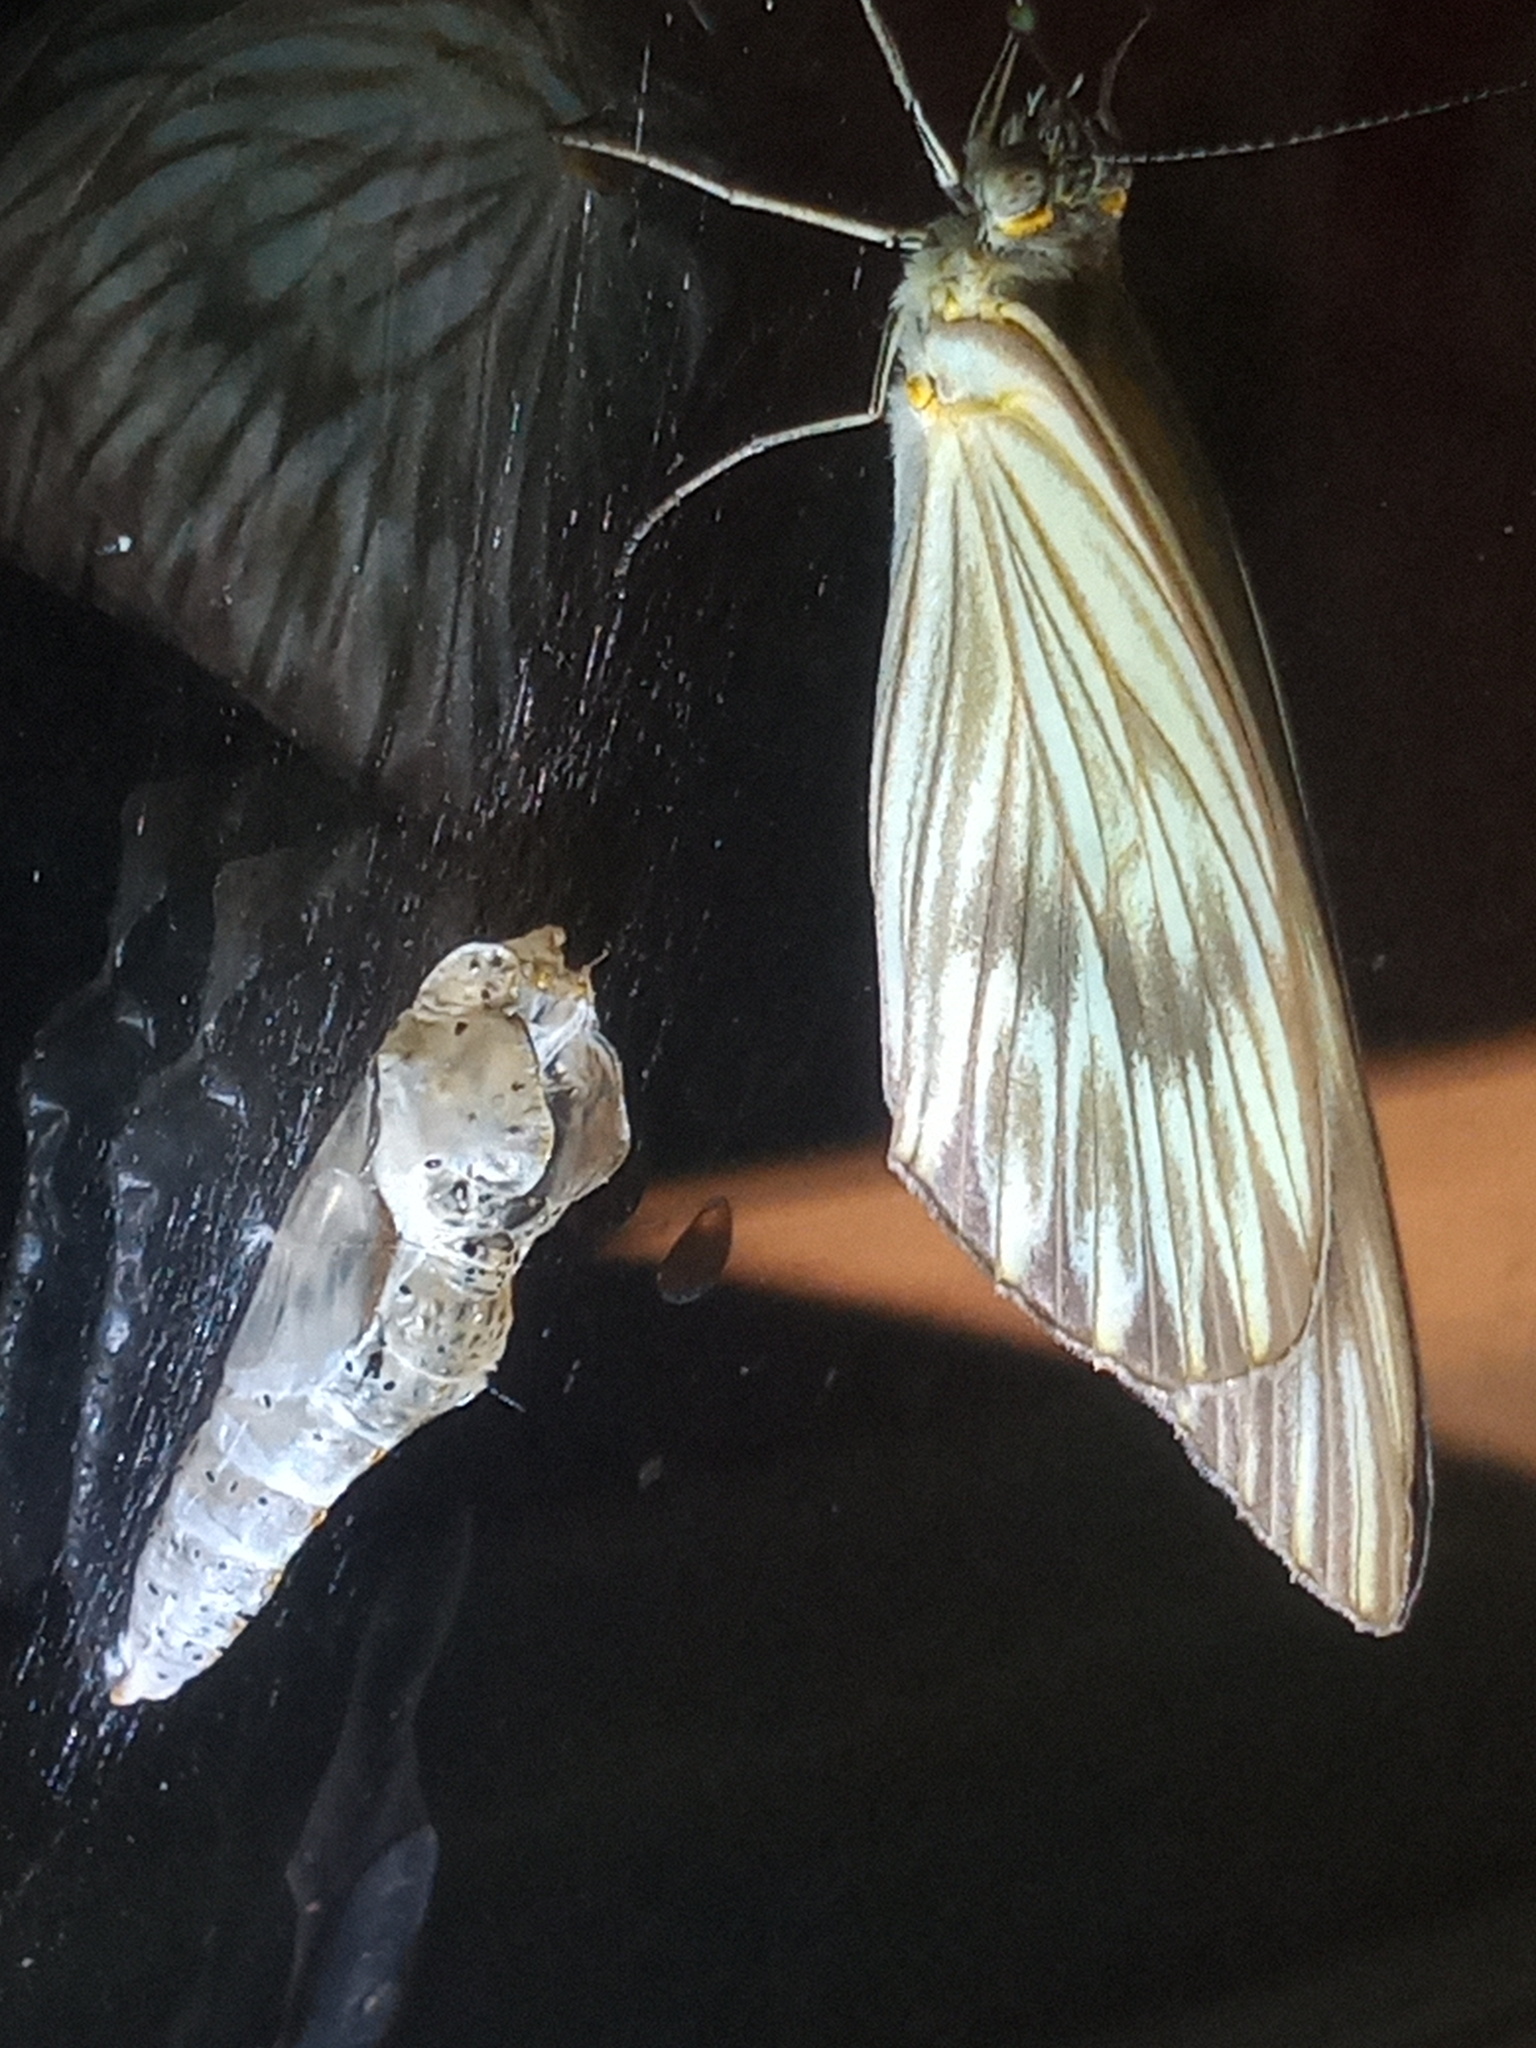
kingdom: Animalia
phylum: Arthropoda
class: Insecta
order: Lepidoptera
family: Pieridae
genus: Ascia
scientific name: Ascia monuste
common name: Great southern white
